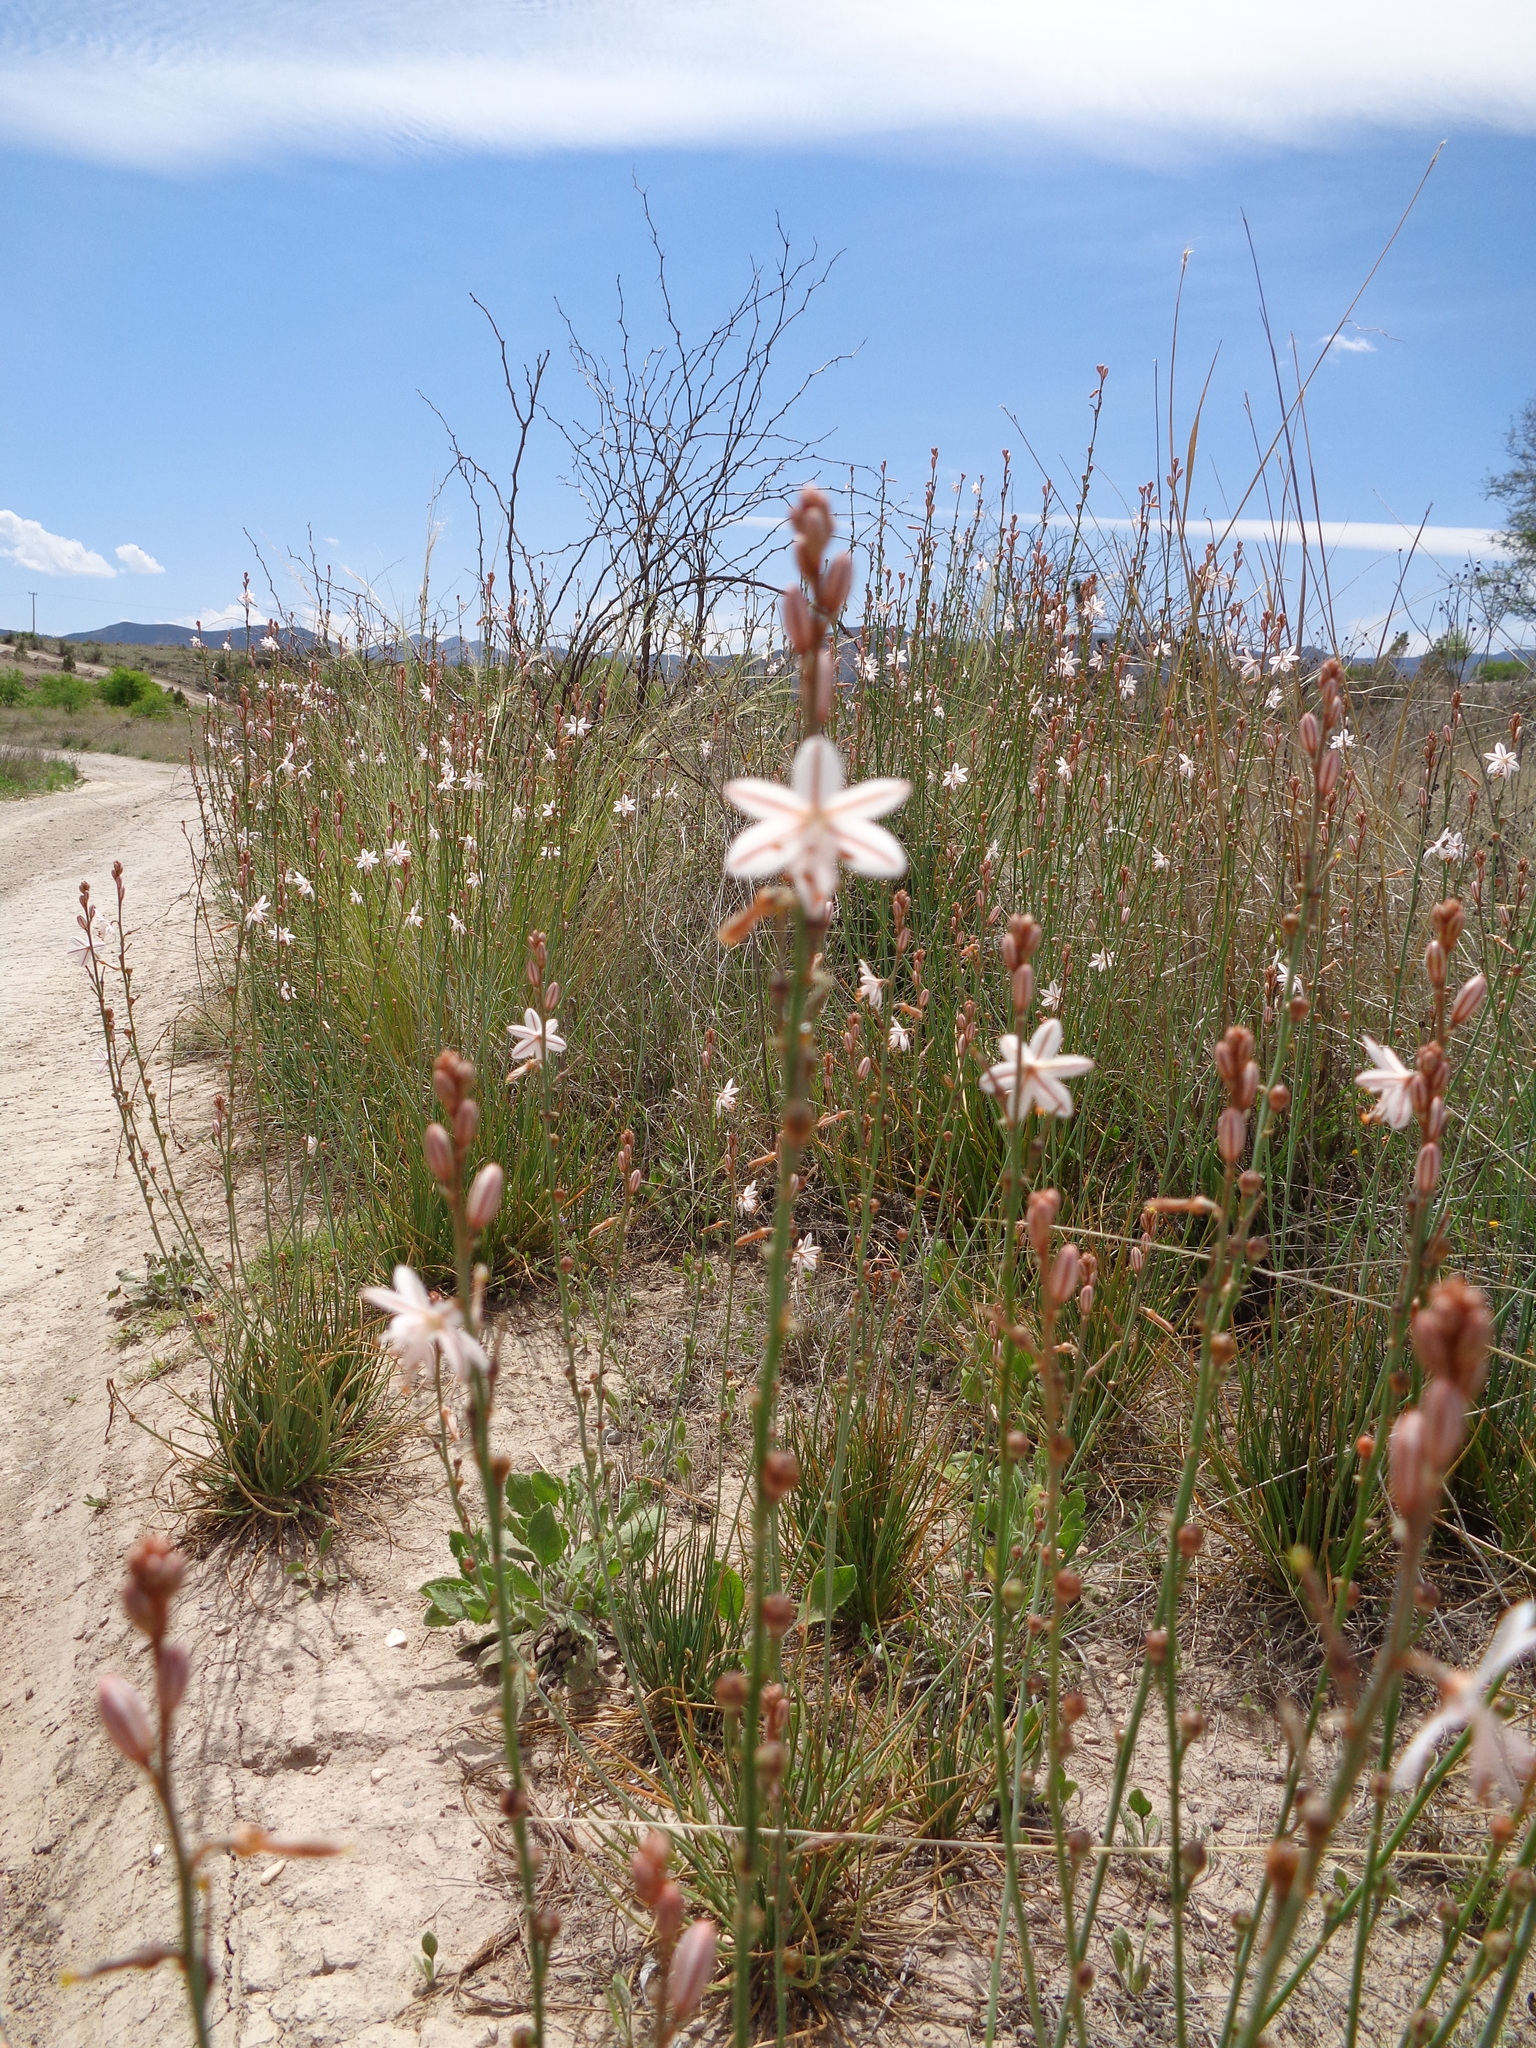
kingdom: Plantae
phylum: Tracheophyta
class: Liliopsida
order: Asparagales
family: Asphodelaceae
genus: Asphodelus
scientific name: Asphodelus fistulosus
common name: Onionweed
